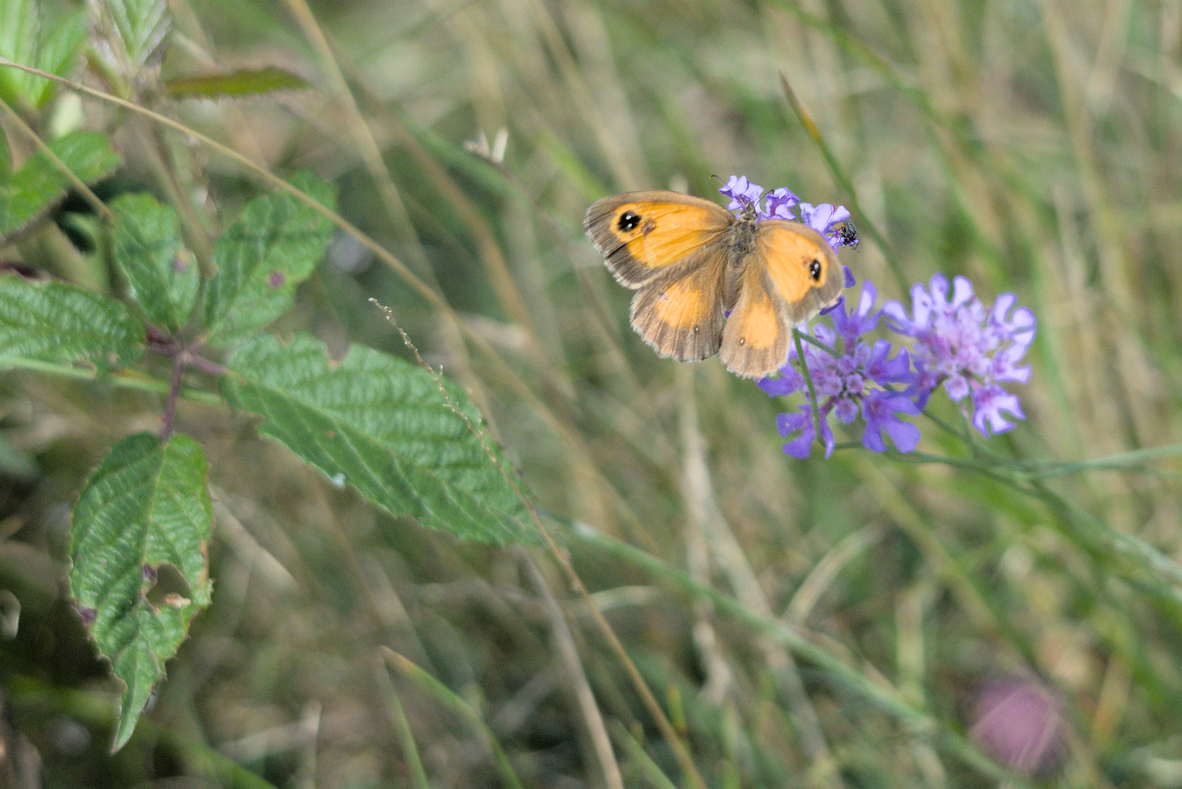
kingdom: Animalia
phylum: Arthropoda
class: Insecta
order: Lepidoptera
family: Nymphalidae
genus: Pyronia
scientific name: Pyronia tithonus
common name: Gatekeeper
